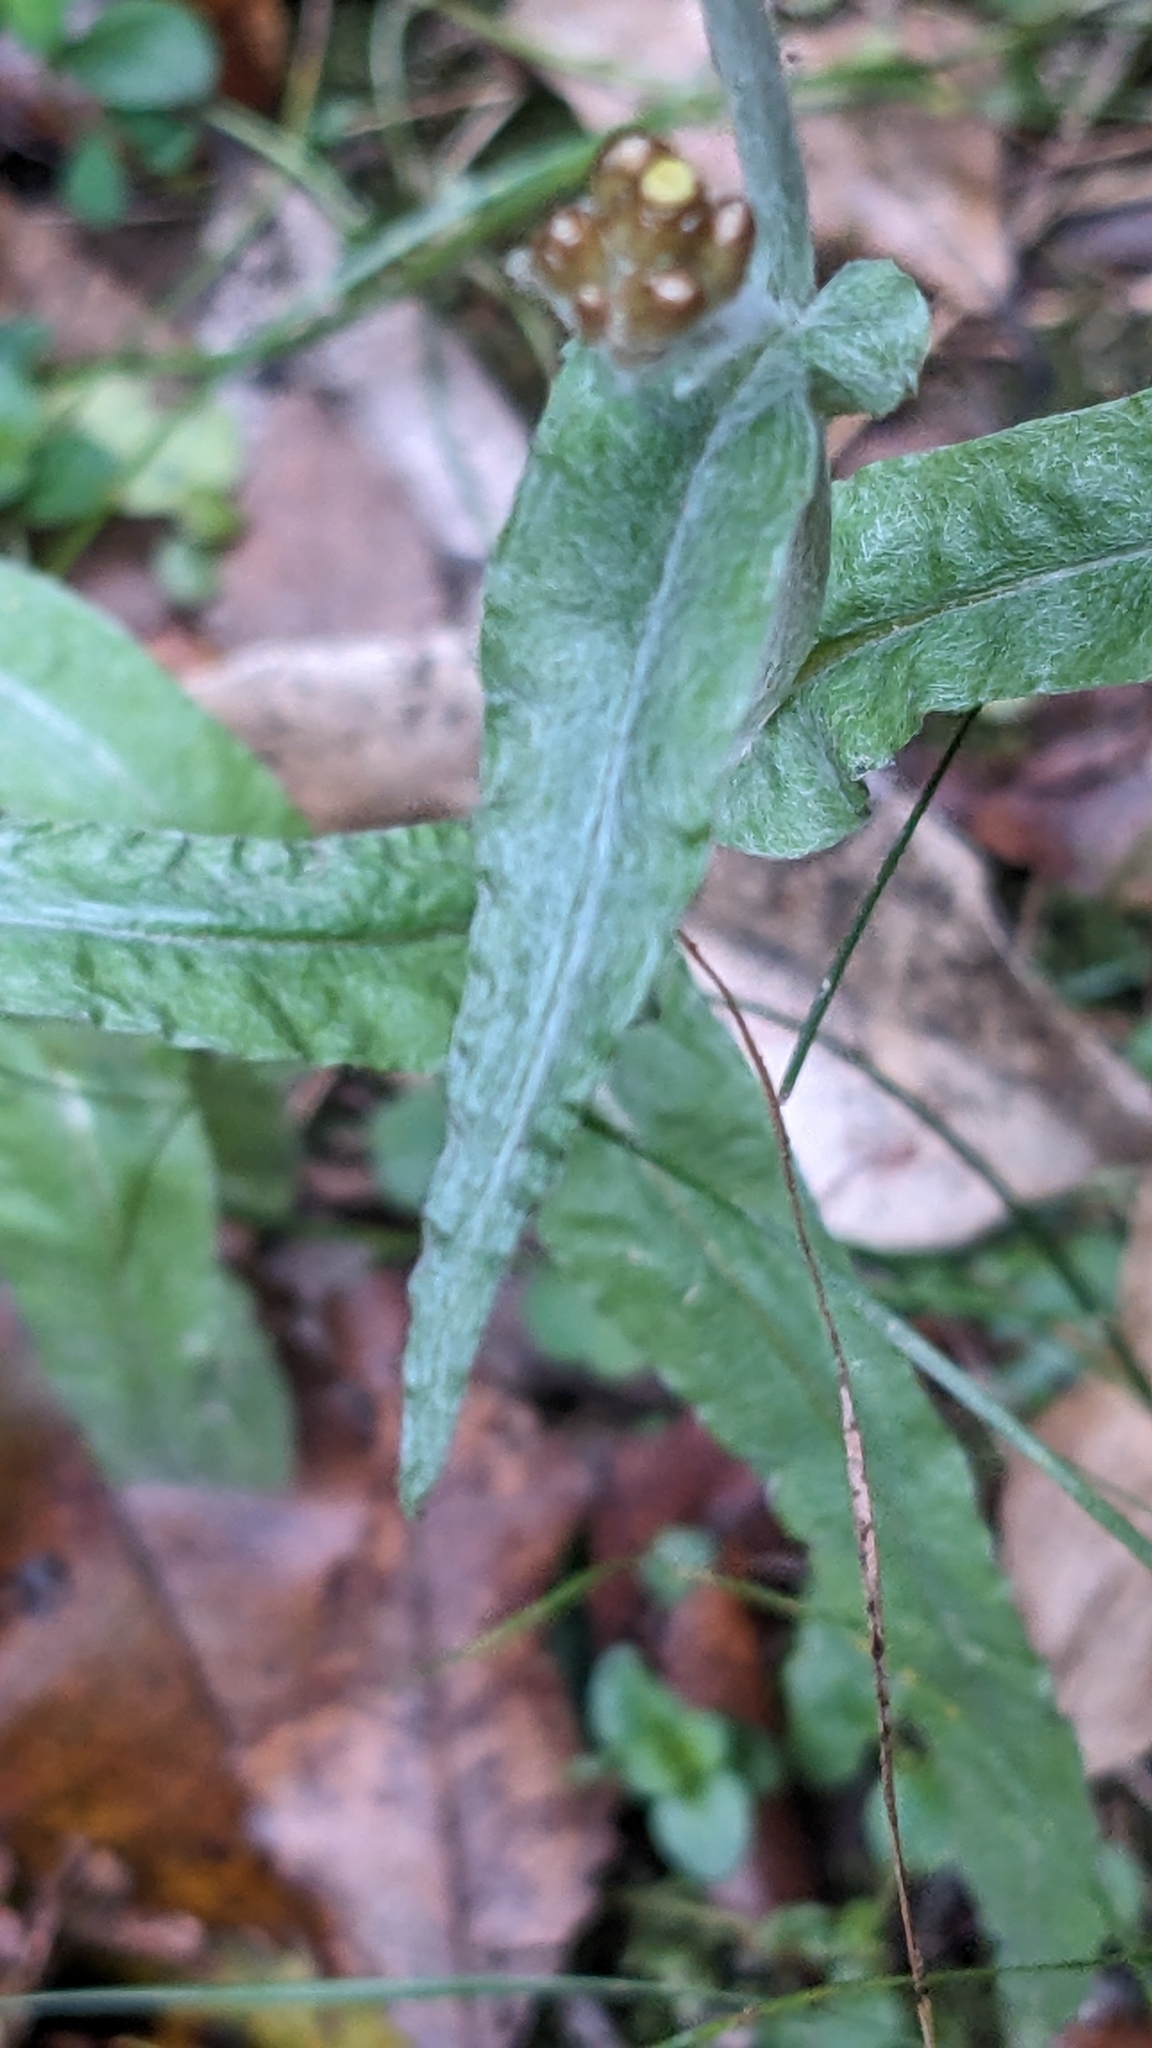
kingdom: Plantae
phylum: Tracheophyta
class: Magnoliopsida
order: Asterales
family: Asteraceae
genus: Pseudognaphalium
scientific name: Pseudognaphalium
